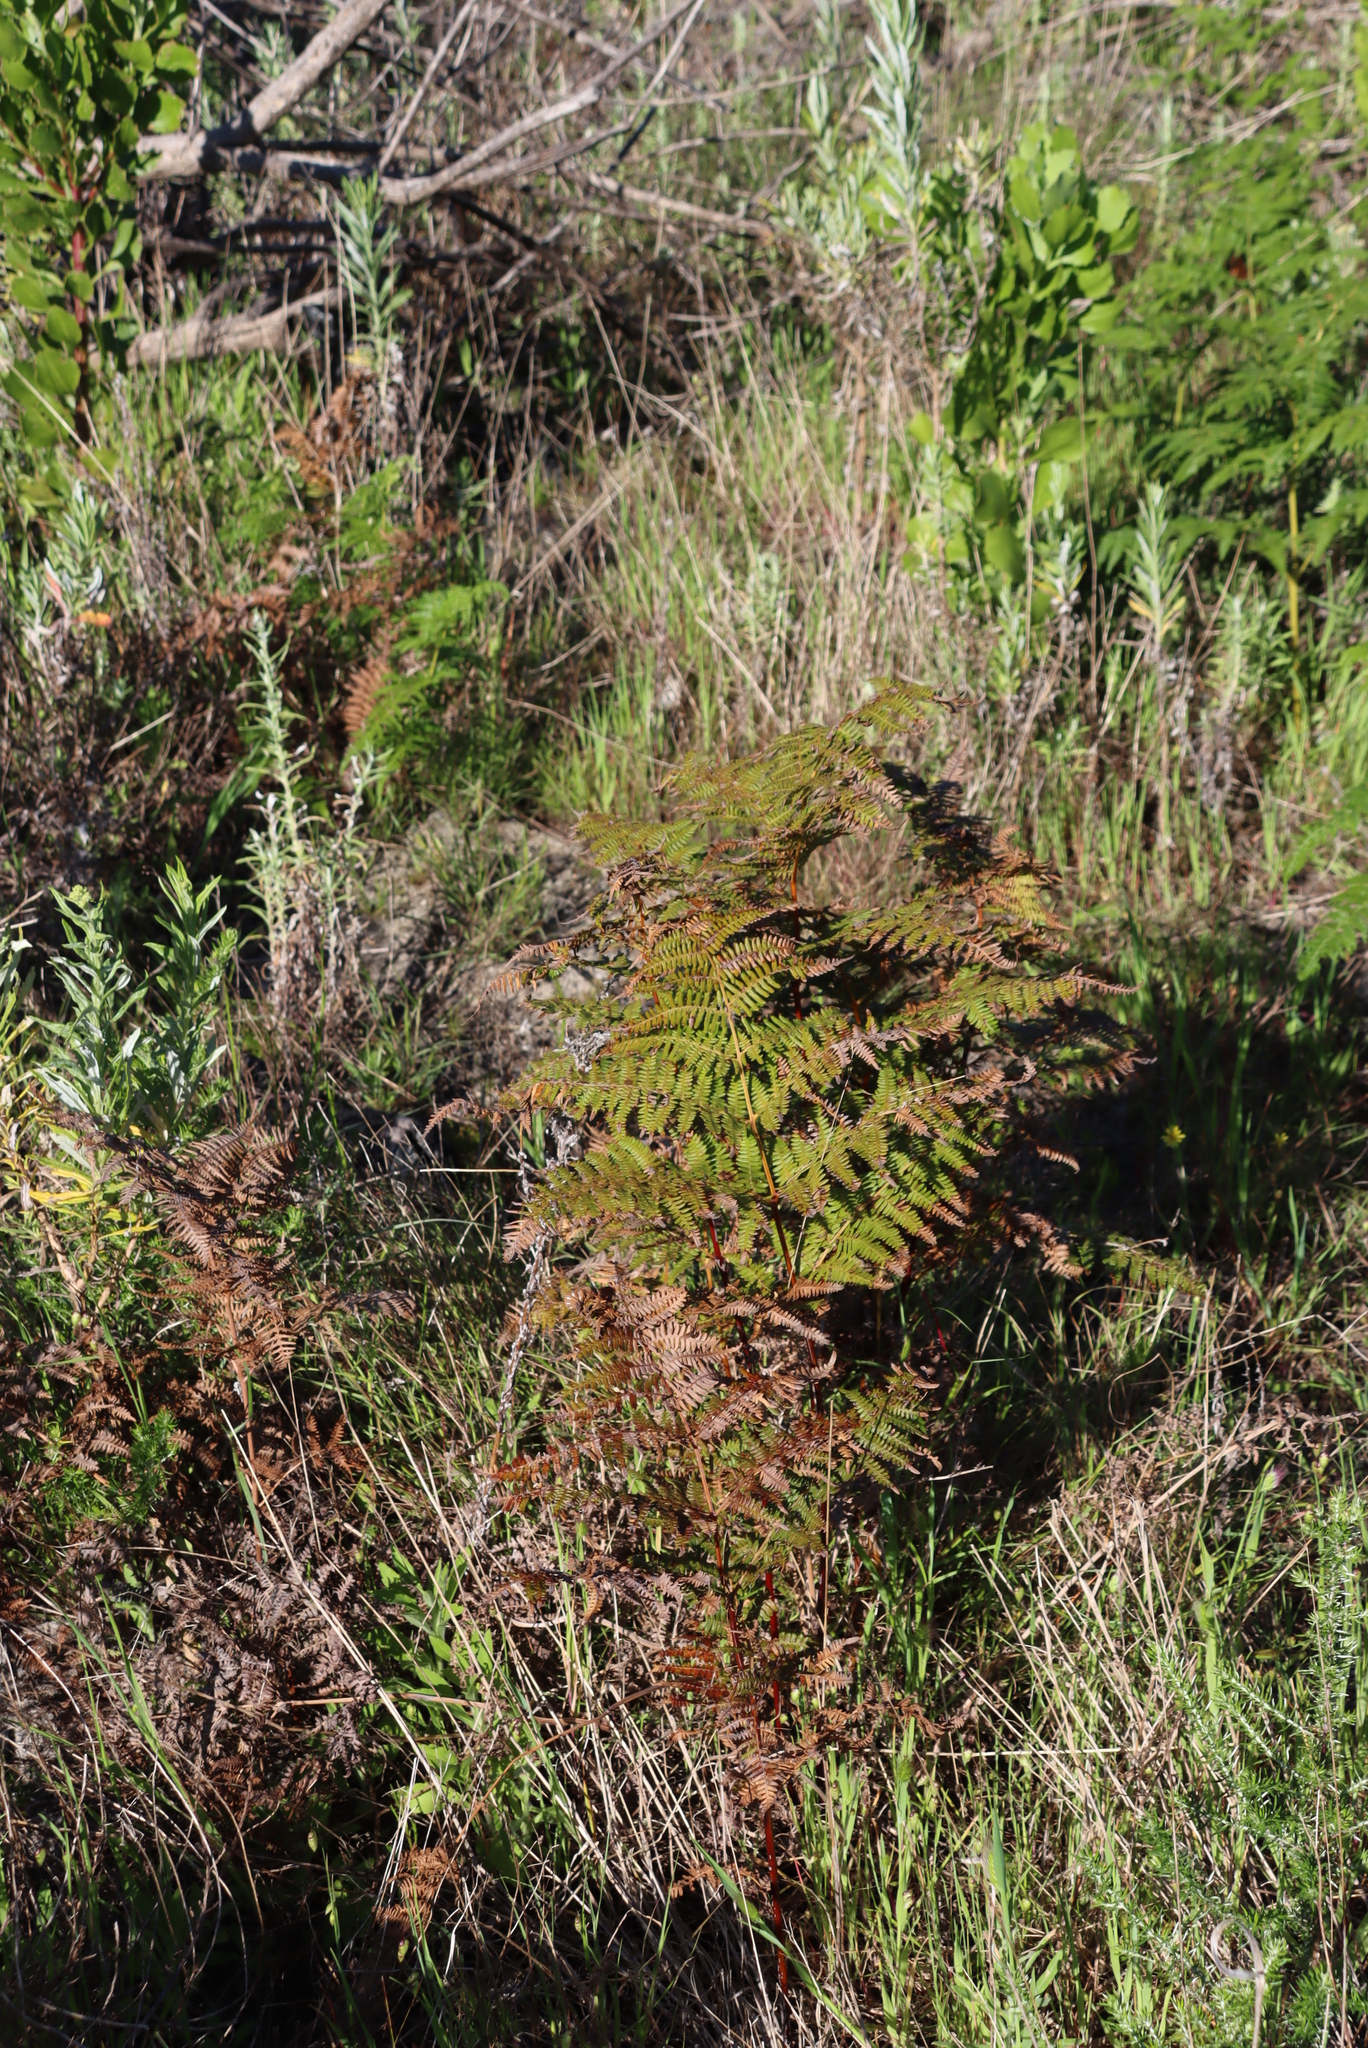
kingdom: Plantae
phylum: Tracheophyta
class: Polypodiopsida
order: Polypodiales
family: Dennstaedtiaceae
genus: Pteridium
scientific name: Pteridium aquilinum
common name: Bracken
